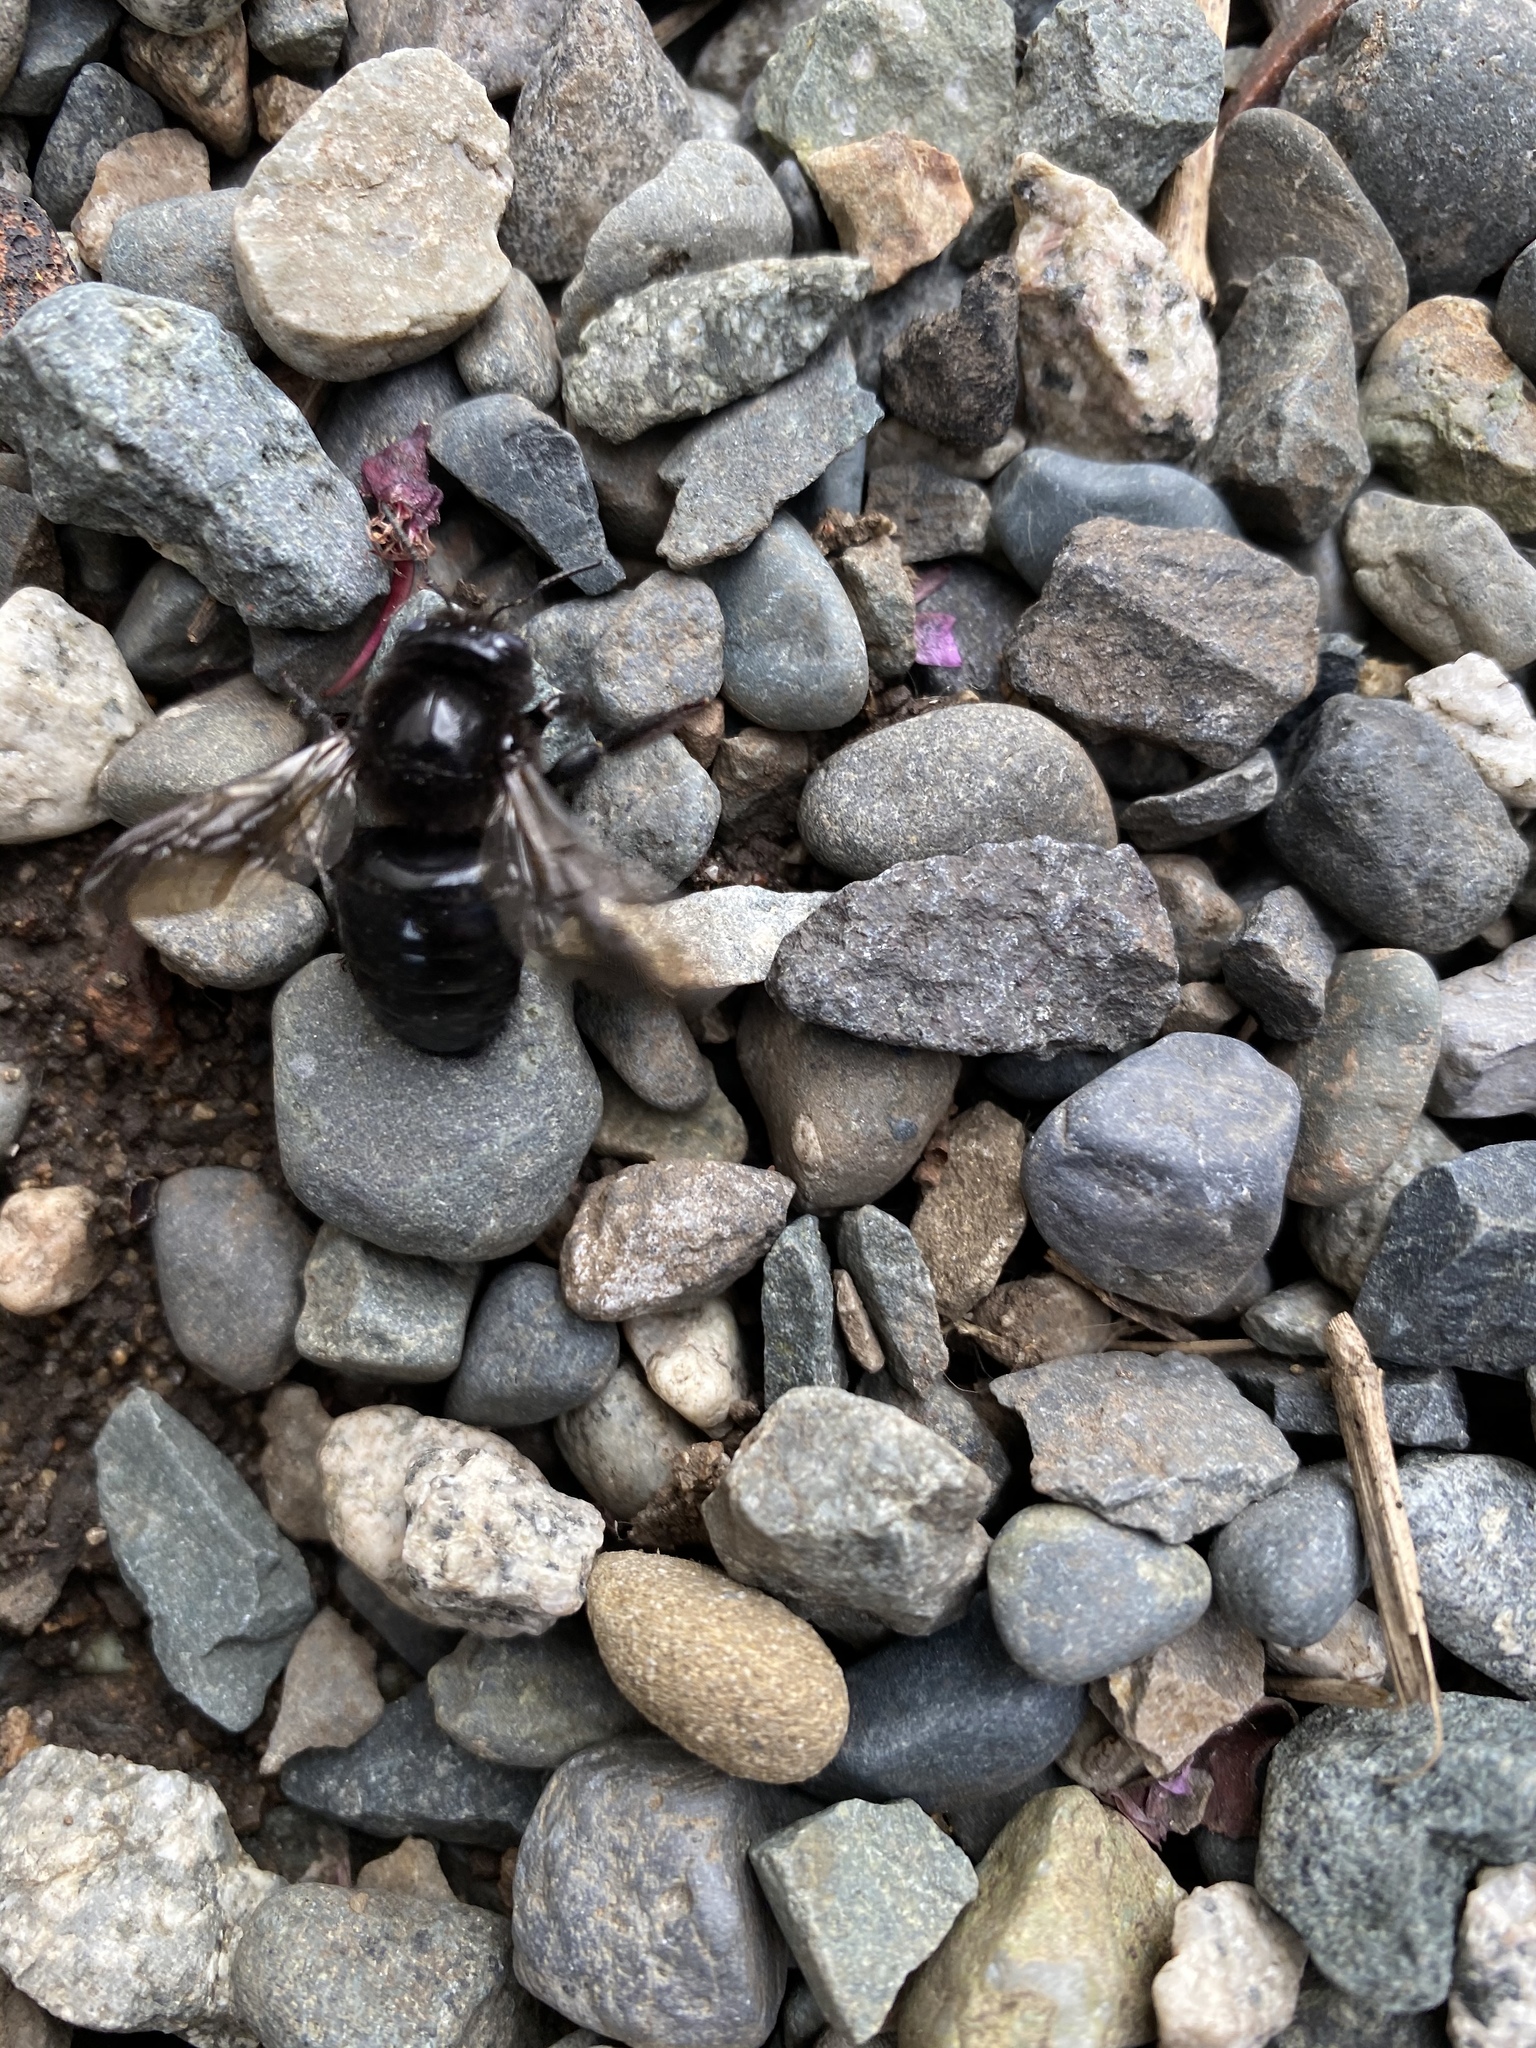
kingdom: Animalia
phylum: Arthropoda
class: Insecta
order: Hymenoptera
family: Apidae
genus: Xylocopa
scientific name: Xylocopa tabaniformis
